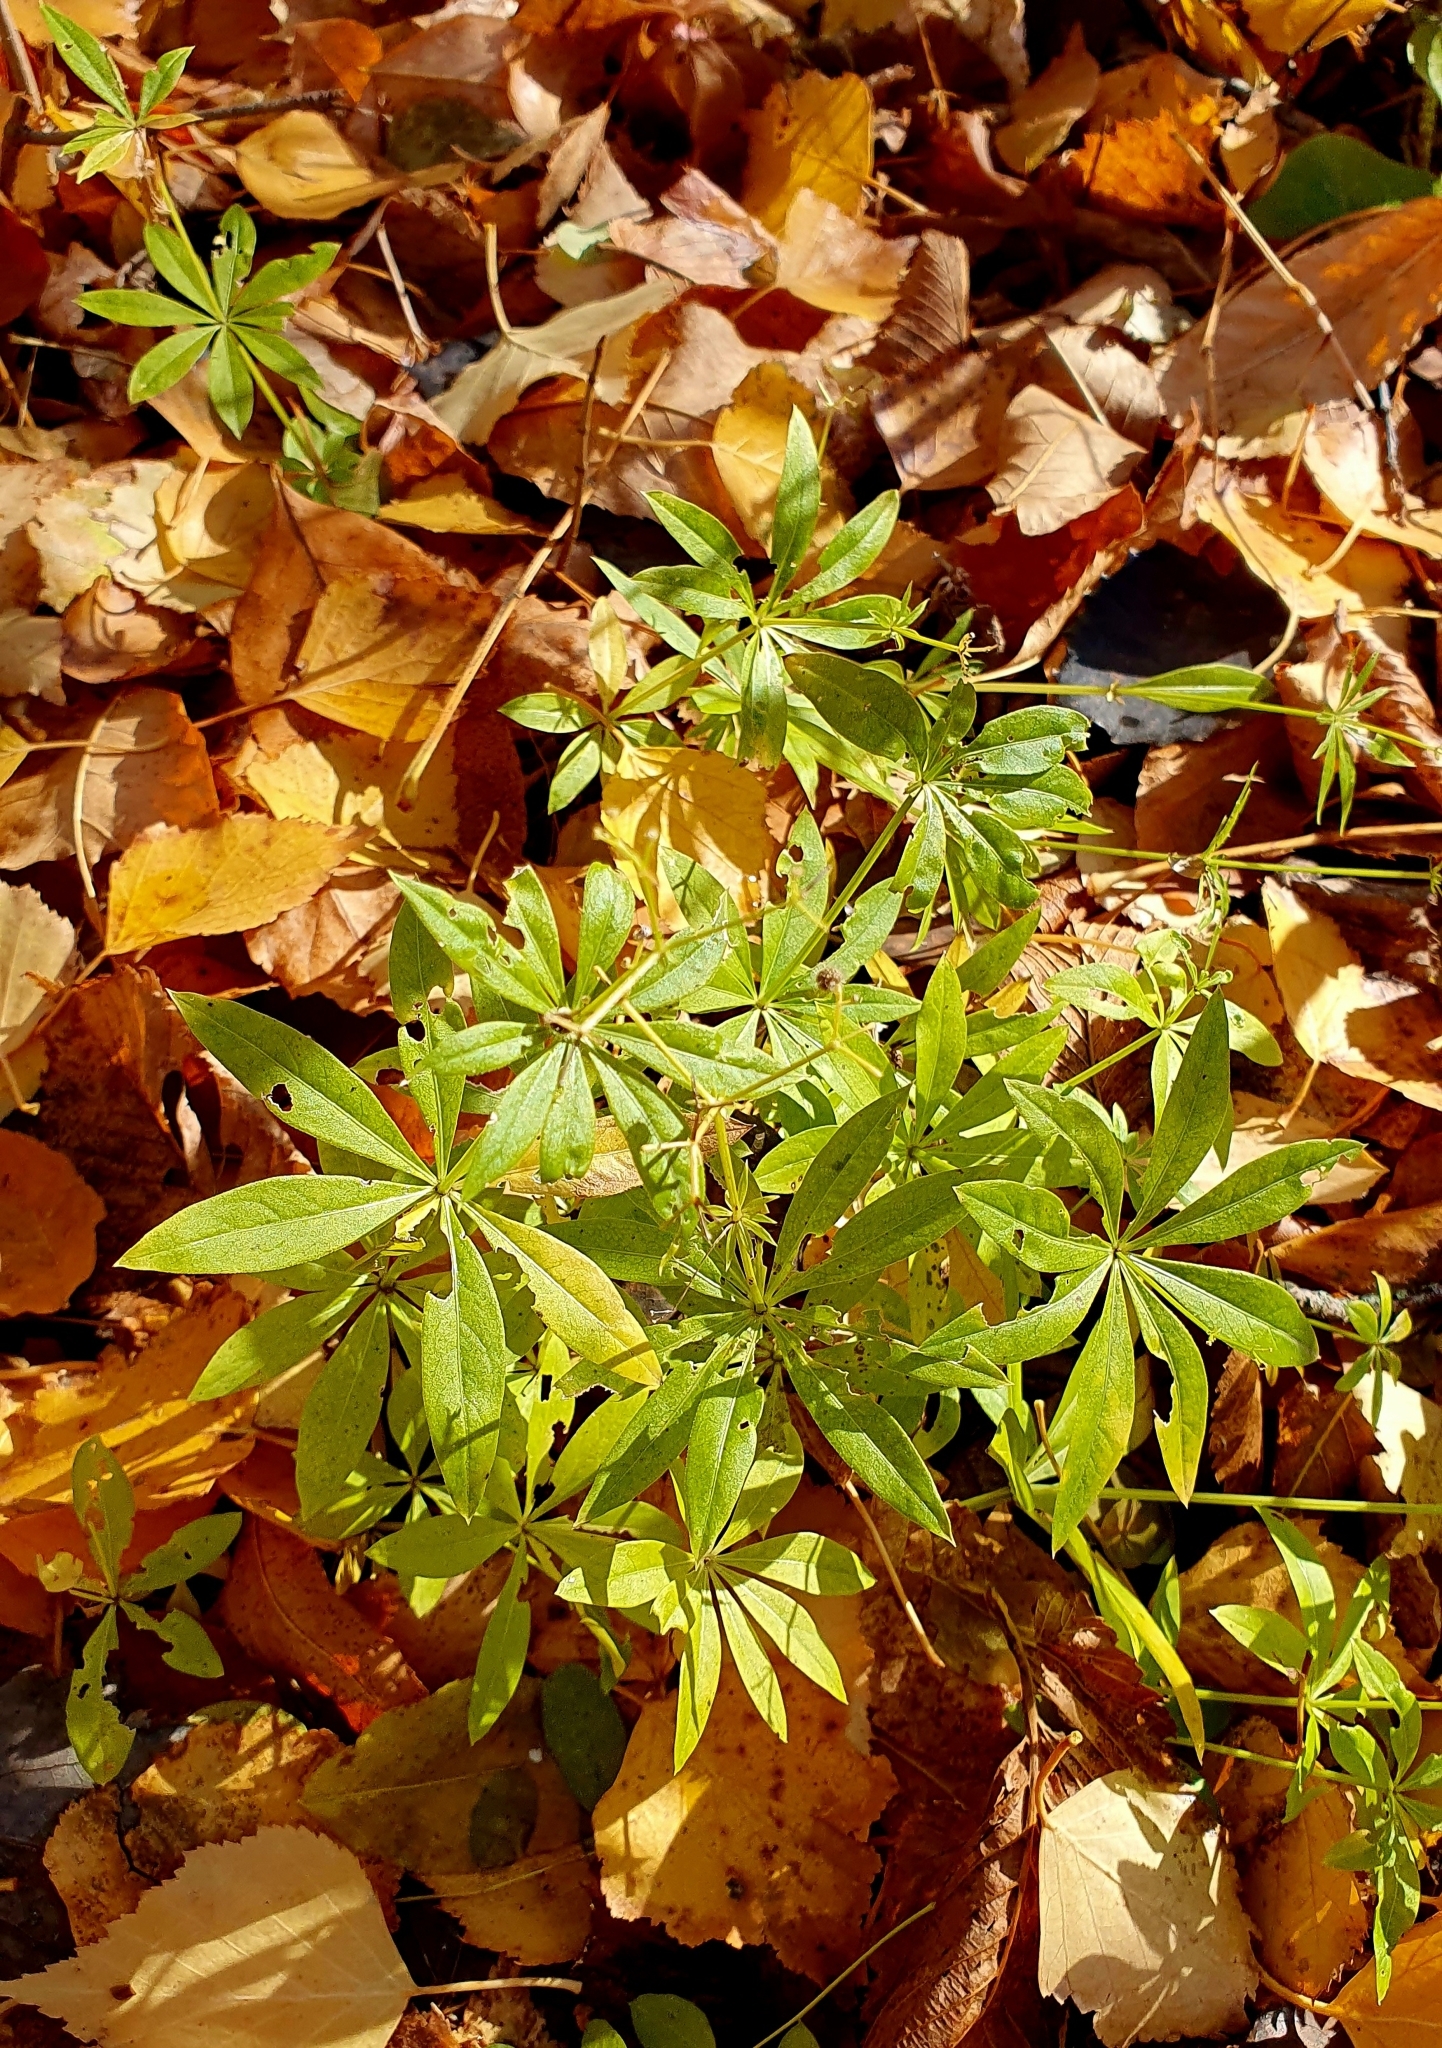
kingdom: Plantae
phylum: Tracheophyta
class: Magnoliopsida
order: Gentianales
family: Rubiaceae
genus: Galium
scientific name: Galium odoratum
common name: Sweet woodruff
